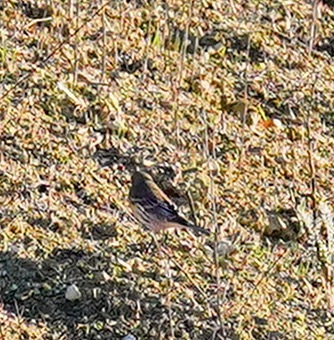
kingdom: Animalia
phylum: Chordata
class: Aves
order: Passeriformes
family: Parulidae
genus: Setophaga
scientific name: Setophaga coronata
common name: Myrtle warbler
